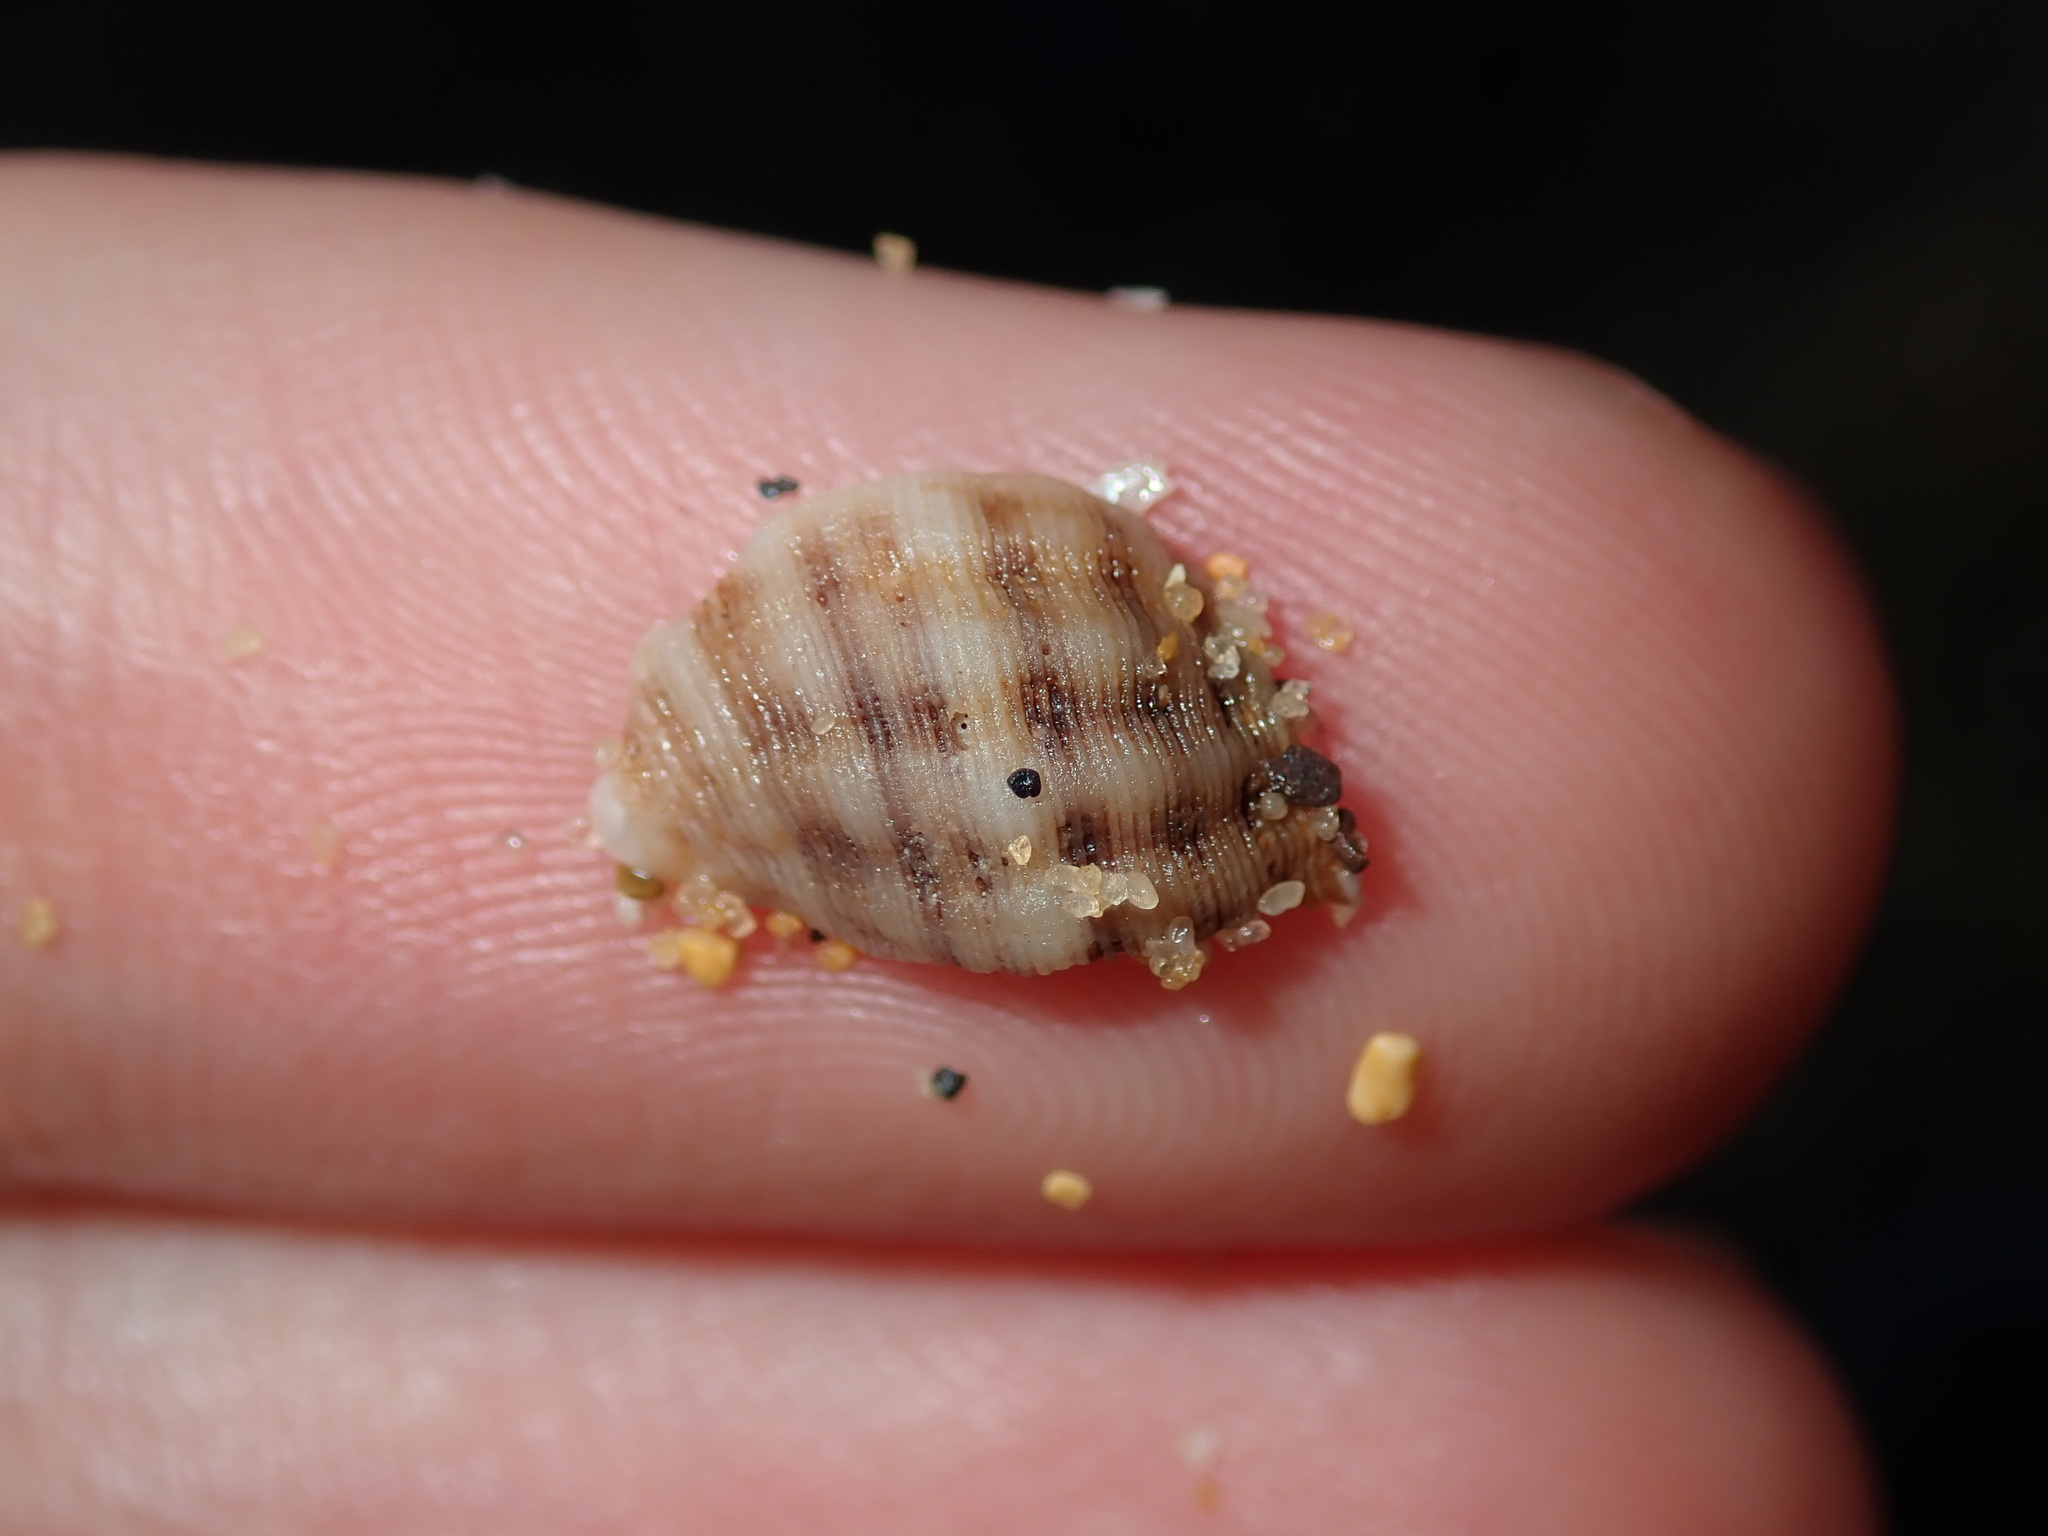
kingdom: Animalia
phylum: Mollusca
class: Gastropoda
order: Neogastropoda
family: Muricidae
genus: Agnewia
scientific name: Agnewia tritoniformis
